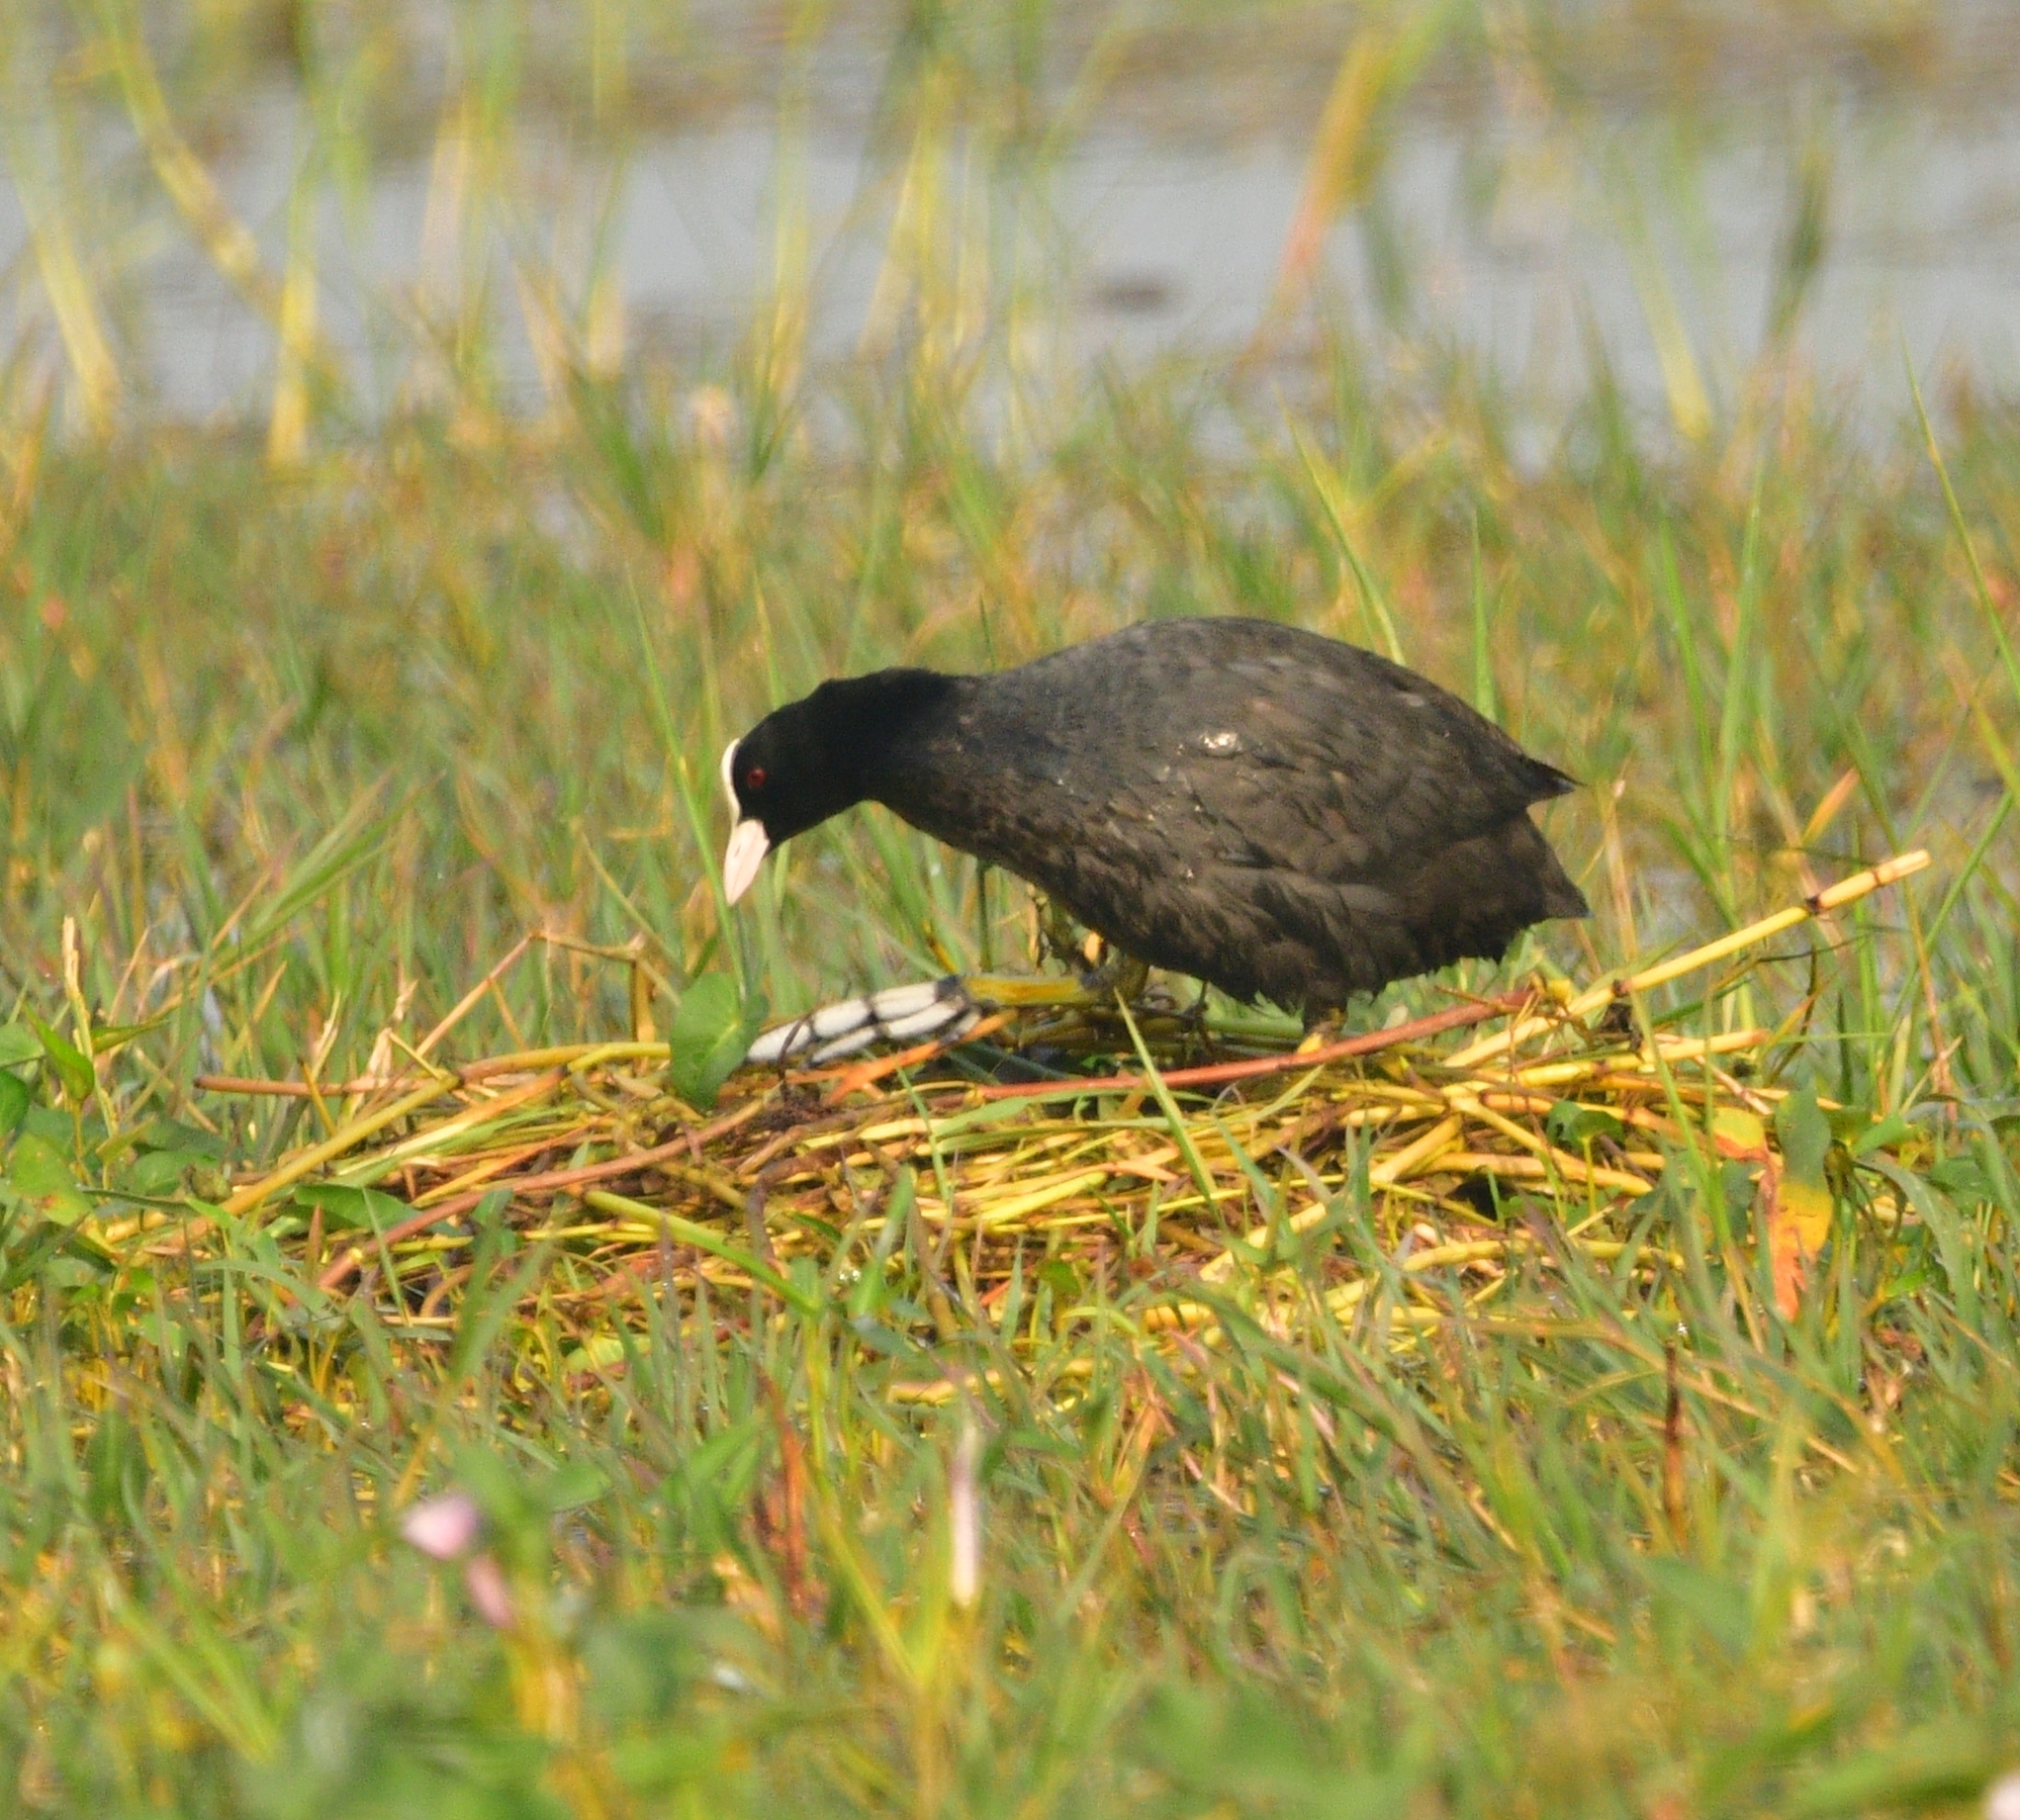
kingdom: Animalia
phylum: Chordata
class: Aves
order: Gruiformes
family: Rallidae
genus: Fulica
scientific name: Fulica atra
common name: Eurasian coot
